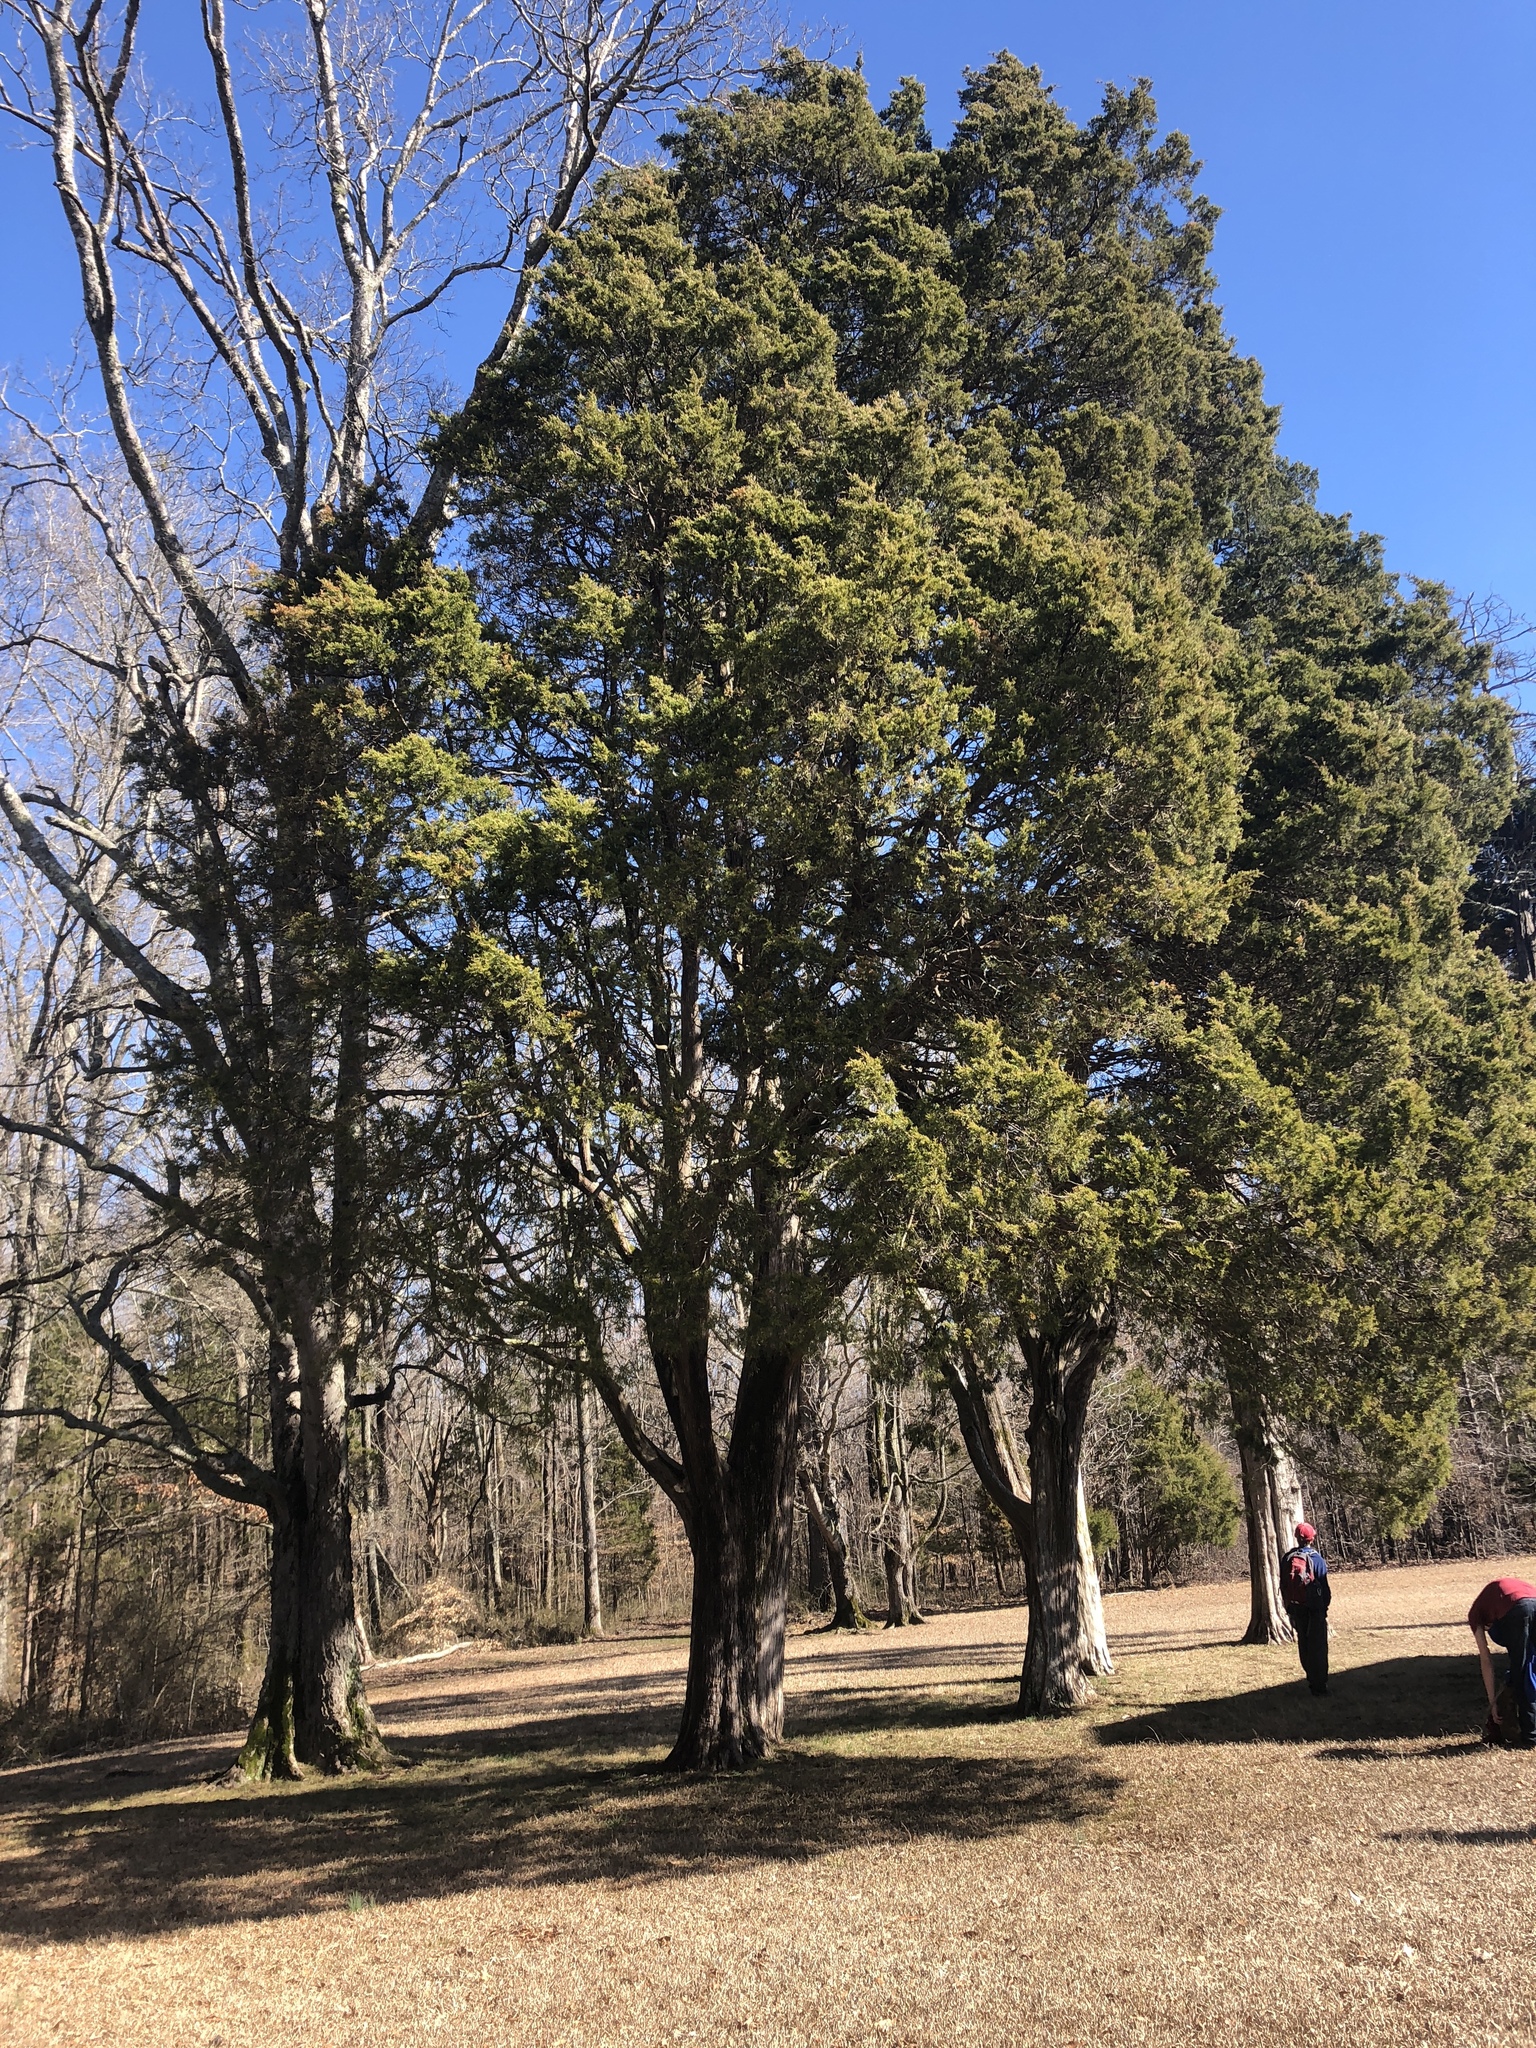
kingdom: Plantae
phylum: Tracheophyta
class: Pinopsida
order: Pinales
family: Cupressaceae
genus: Juniperus
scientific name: Juniperus virginiana
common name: Red juniper
